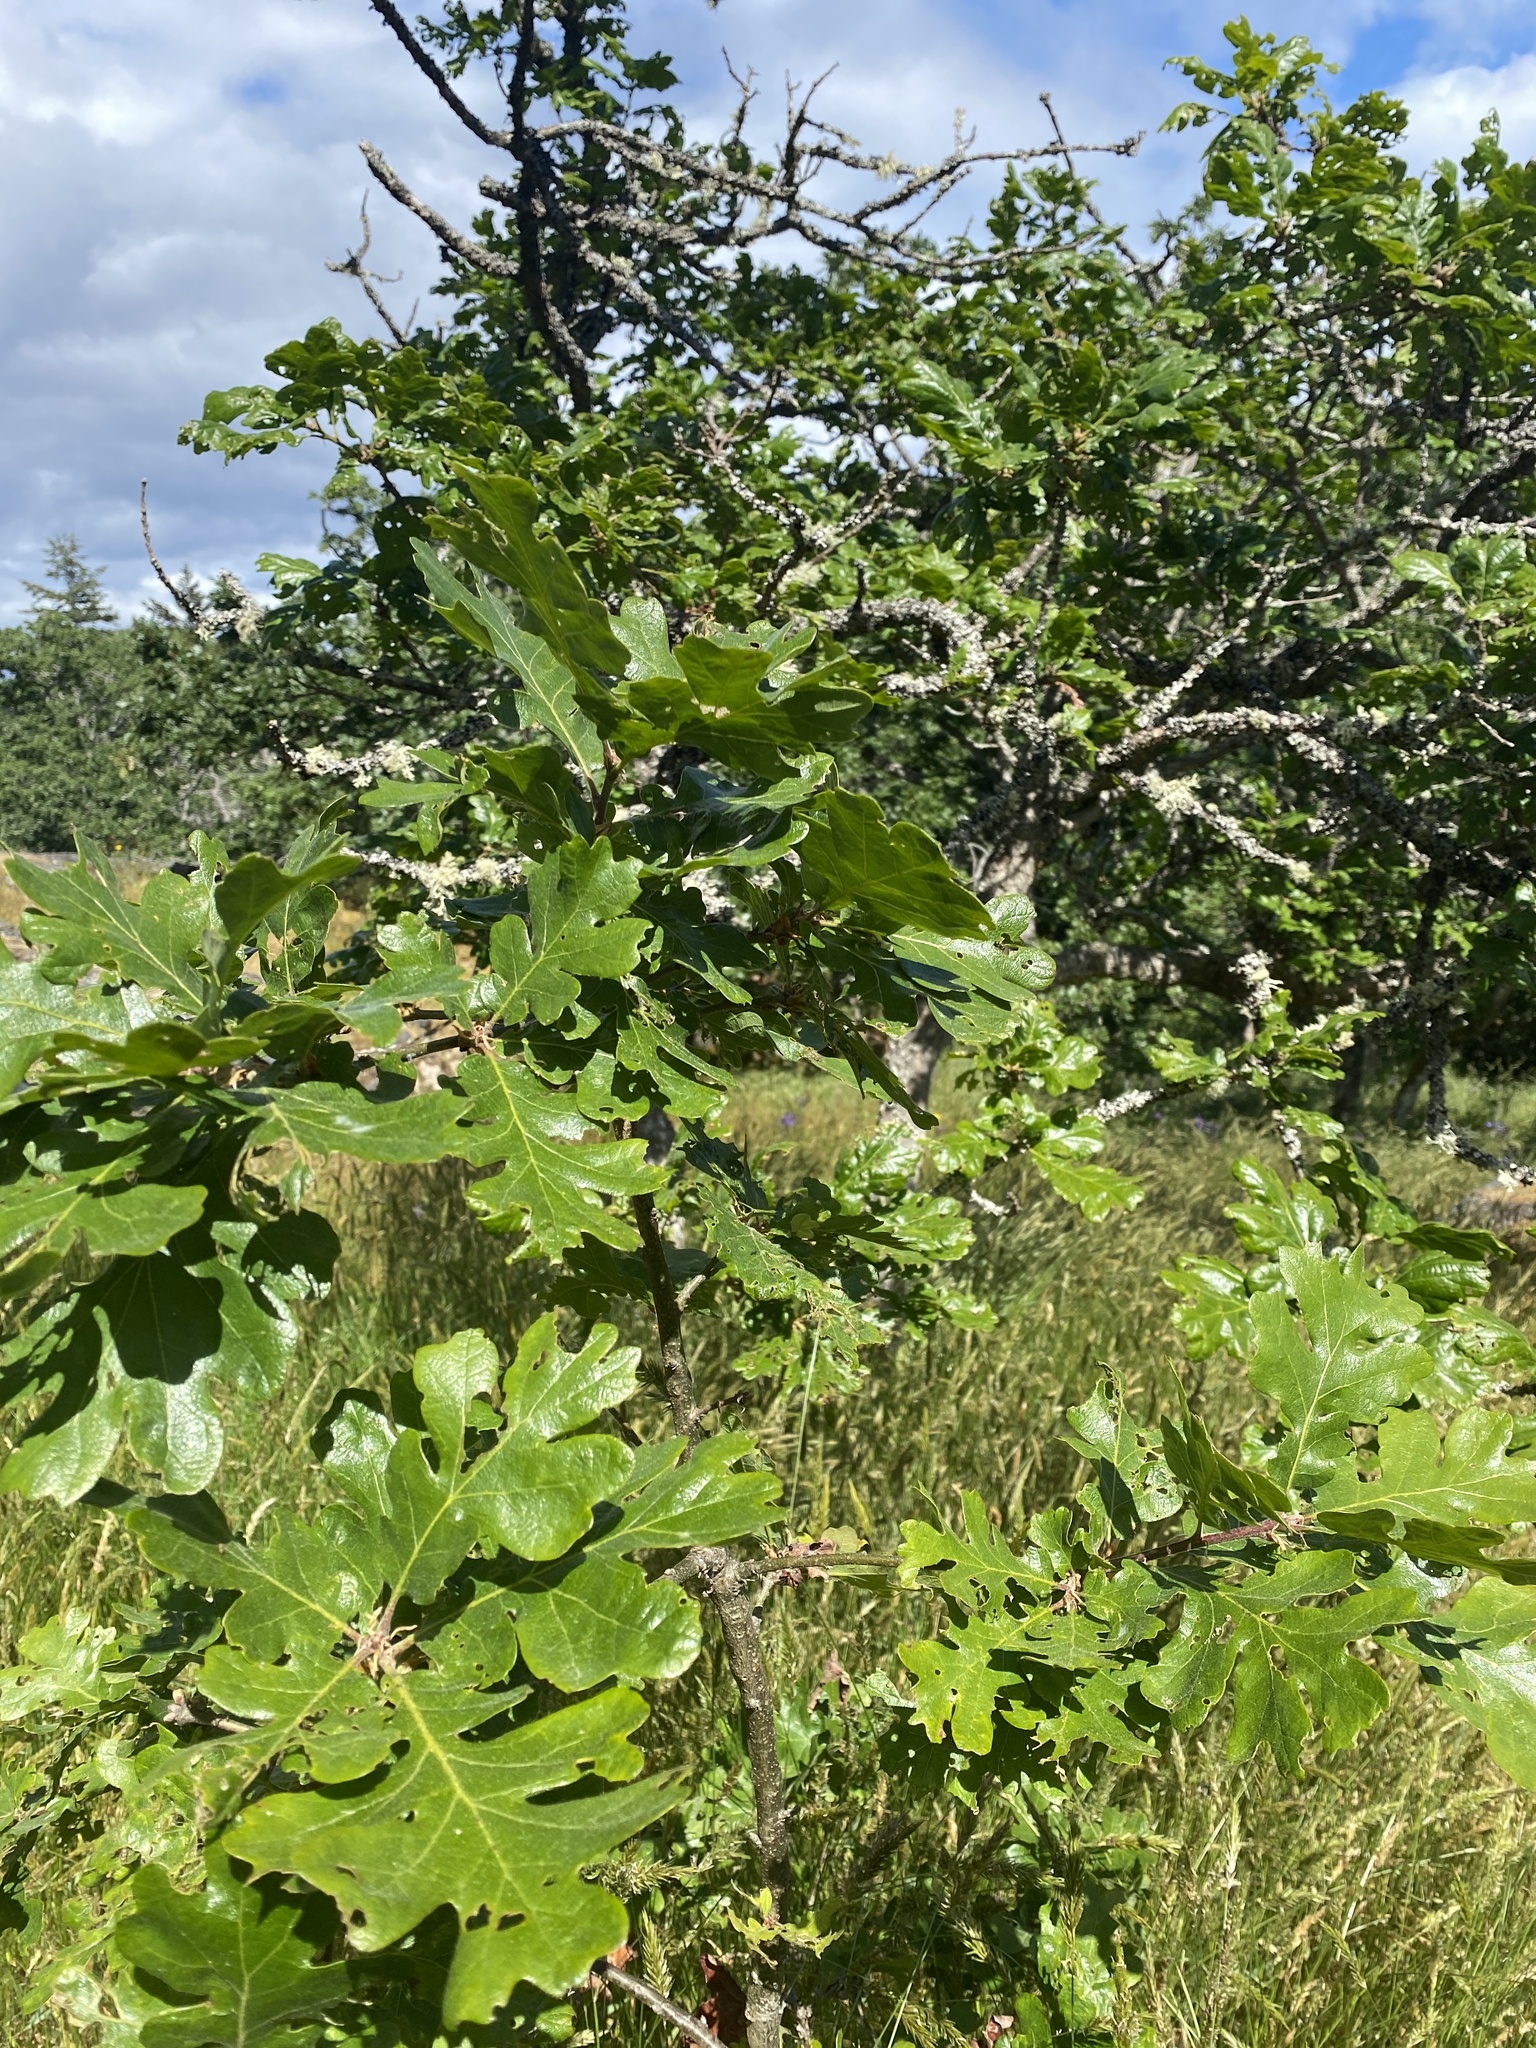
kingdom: Plantae
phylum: Tracheophyta
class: Magnoliopsida
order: Fagales
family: Fagaceae
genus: Quercus
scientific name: Quercus garryana
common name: Garry oak
